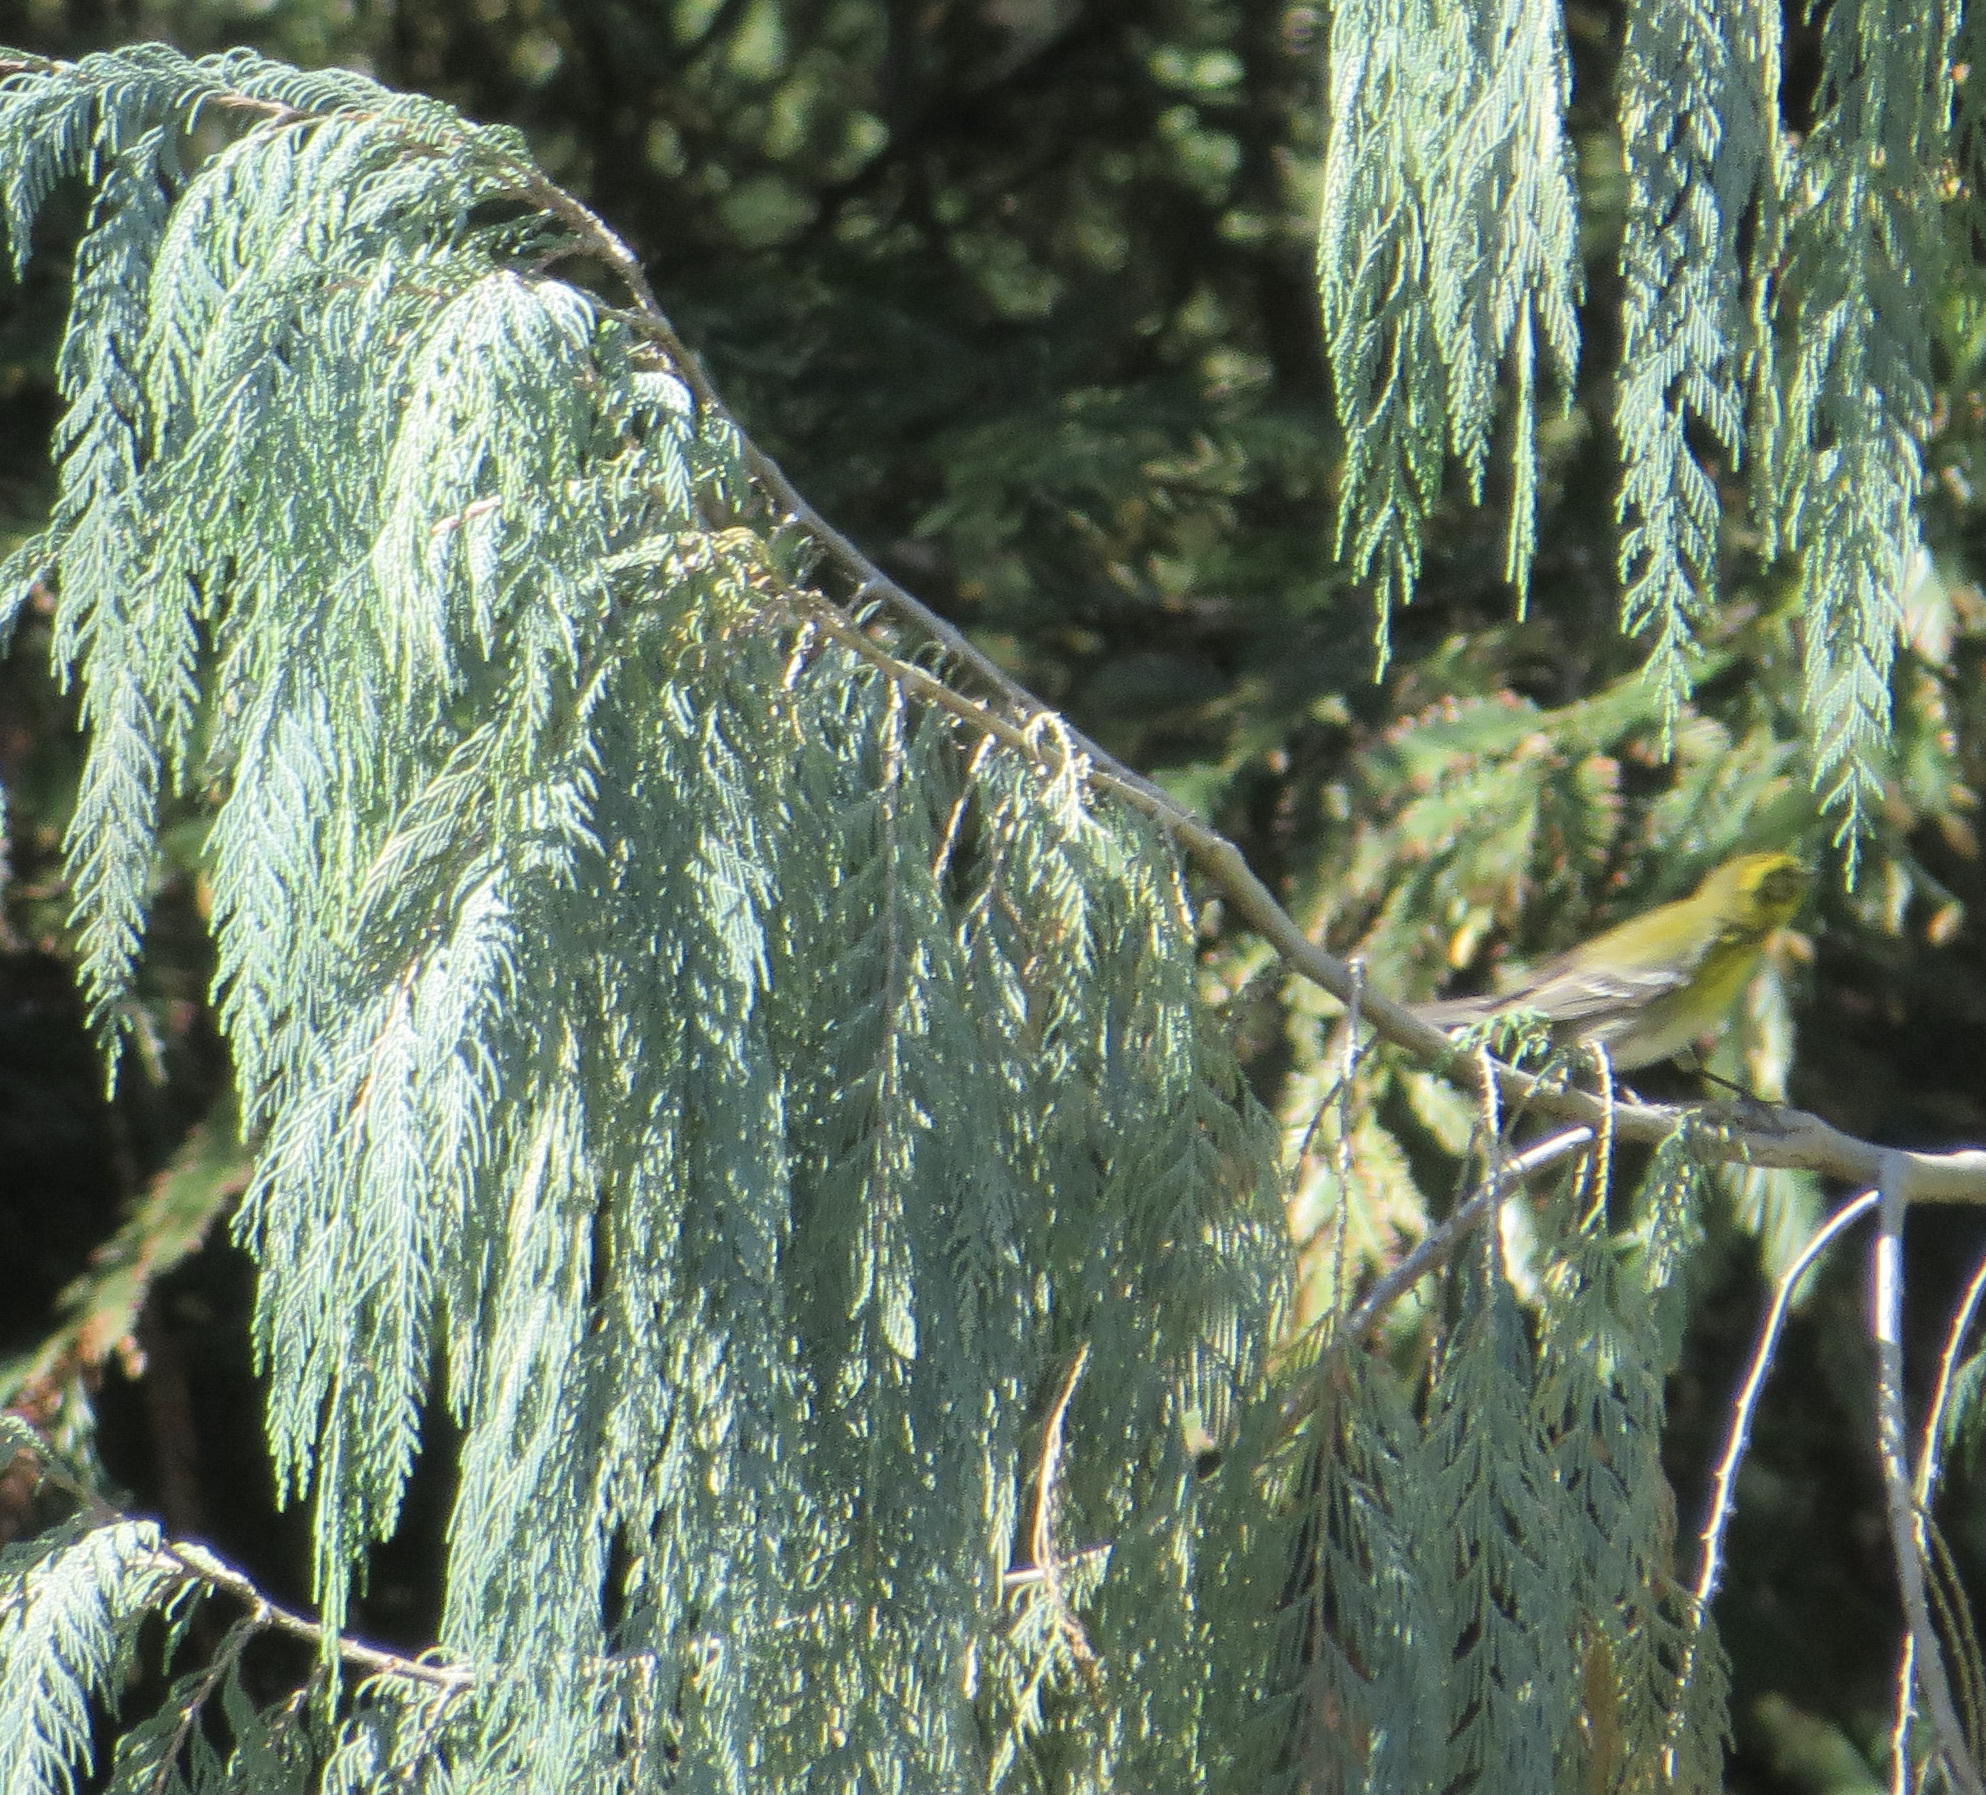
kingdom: Animalia
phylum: Chordata
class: Aves
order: Passeriformes
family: Parulidae
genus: Setophaga
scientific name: Setophaga townsendi
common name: Townsend's warbler
